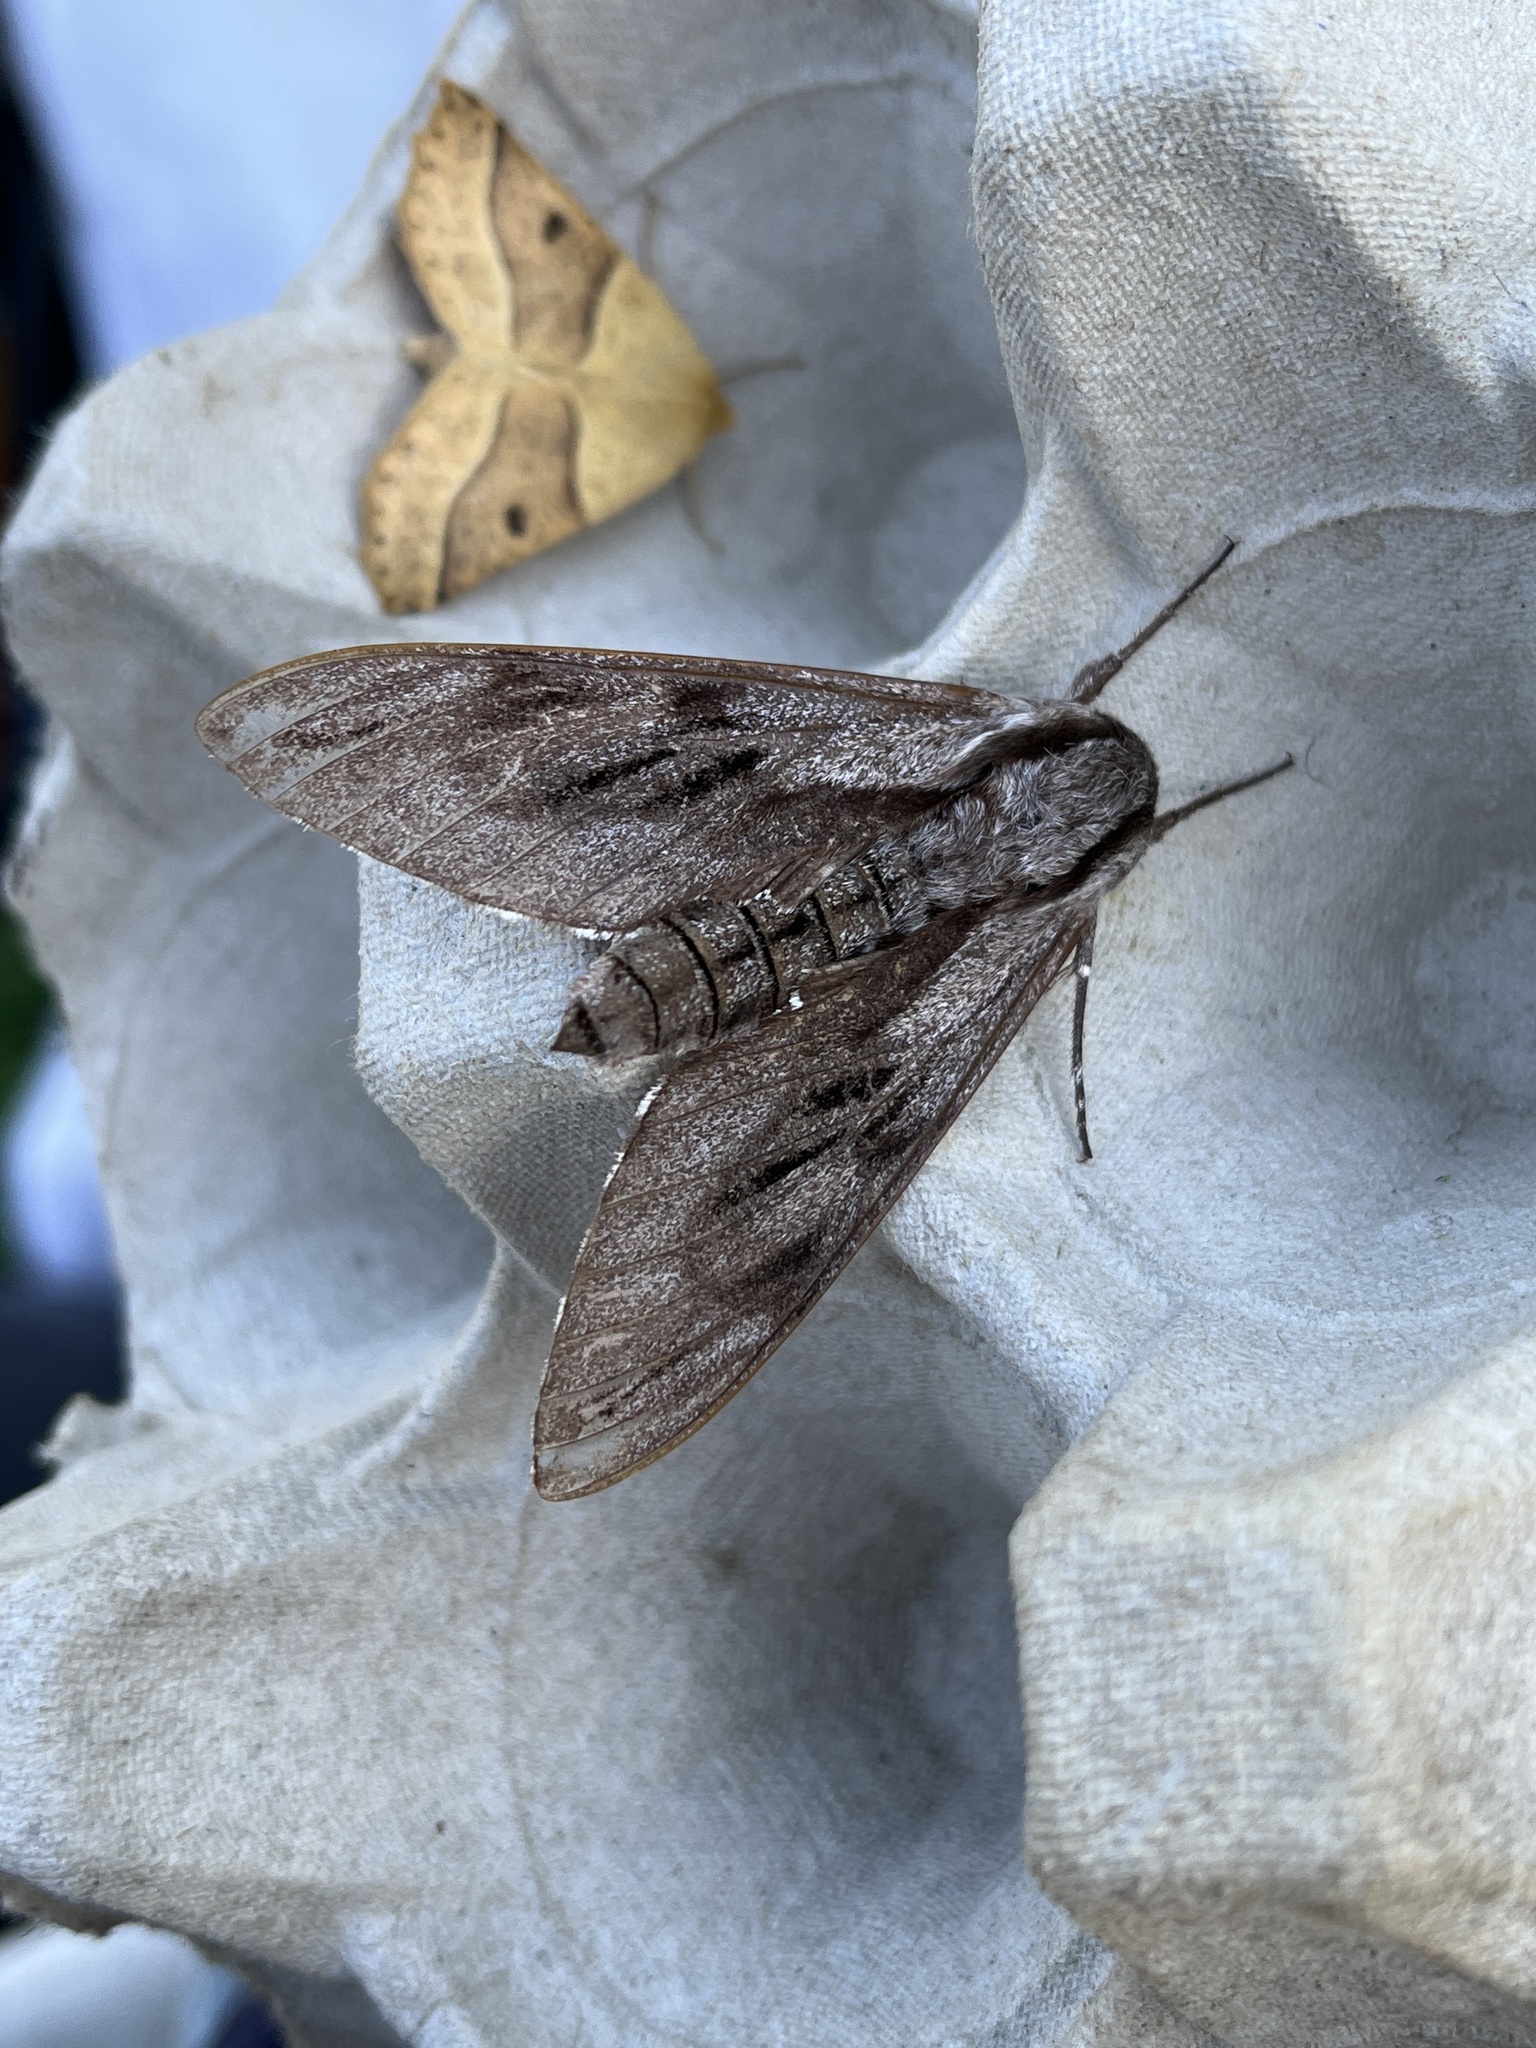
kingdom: Animalia
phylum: Arthropoda
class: Insecta
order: Lepidoptera
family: Sphingidae
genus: Sphinx
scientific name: Sphinx pinastri
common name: Pine hawk-moth
